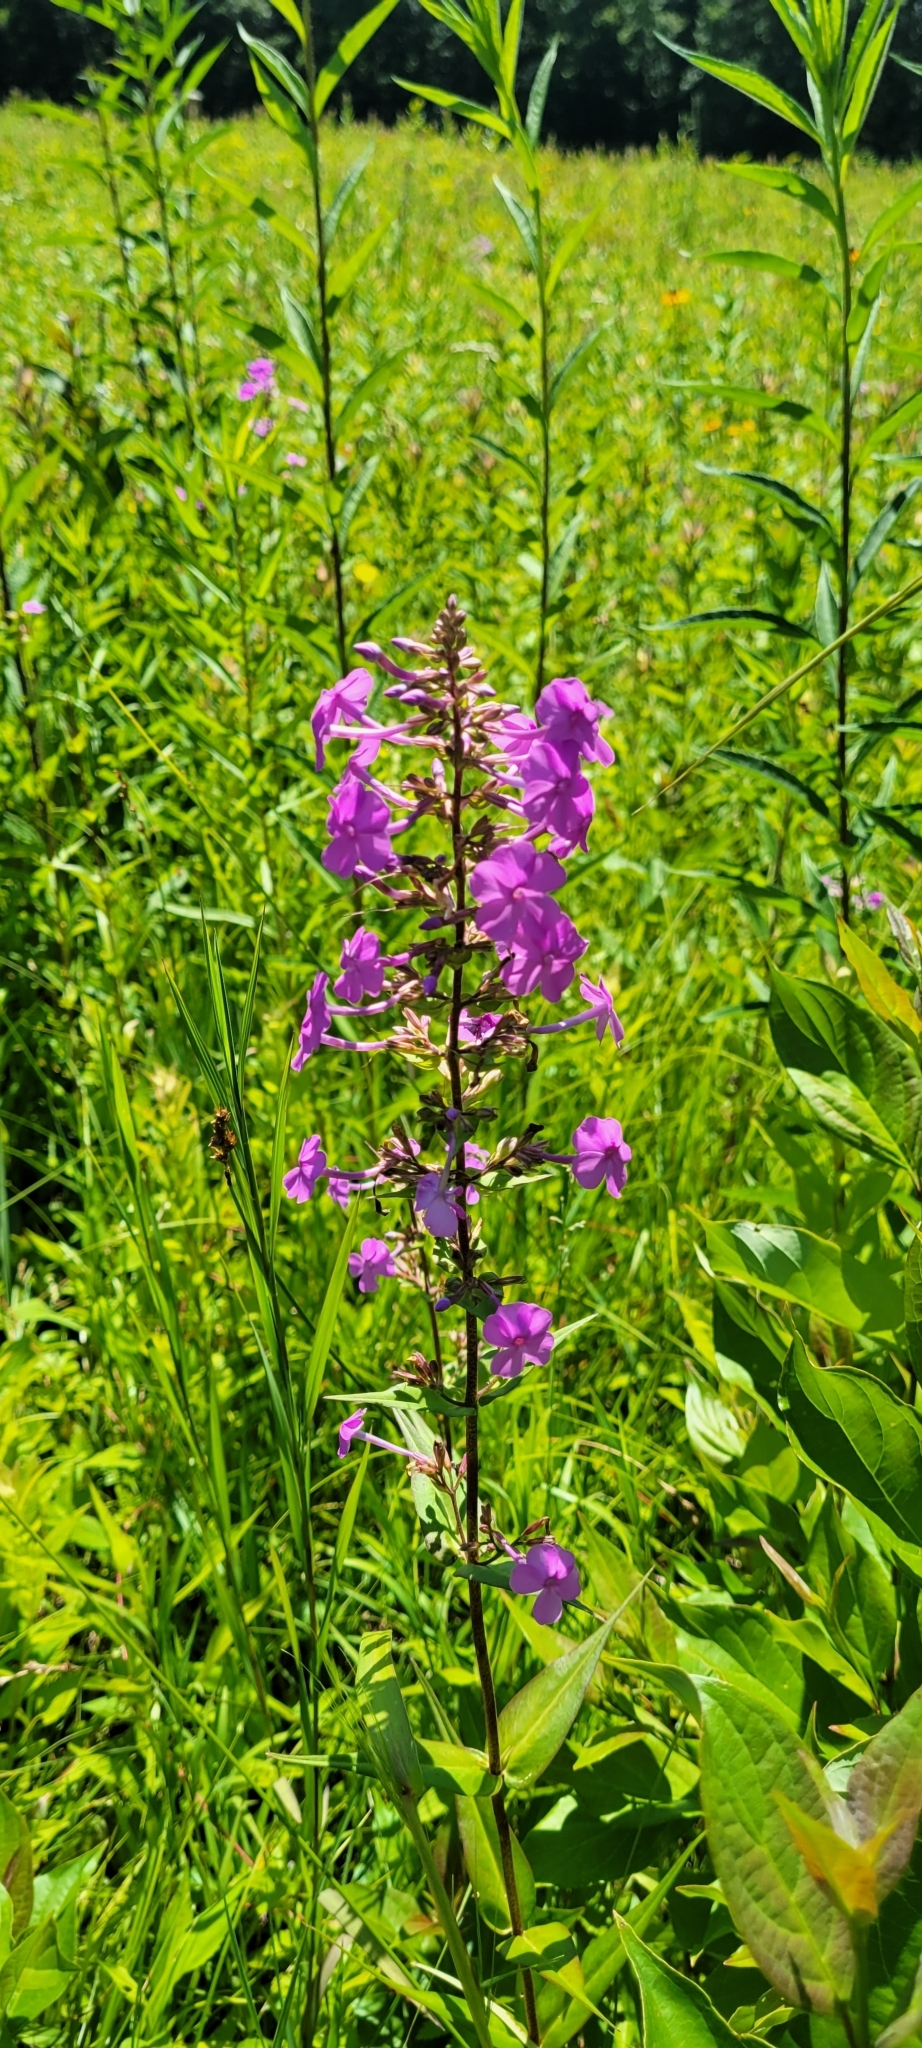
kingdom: Plantae
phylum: Tracheophyta
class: Magnoliopsida
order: Ericales
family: Polemoniaceae
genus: Phlox
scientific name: Phlox maculata
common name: Meadow phlox
